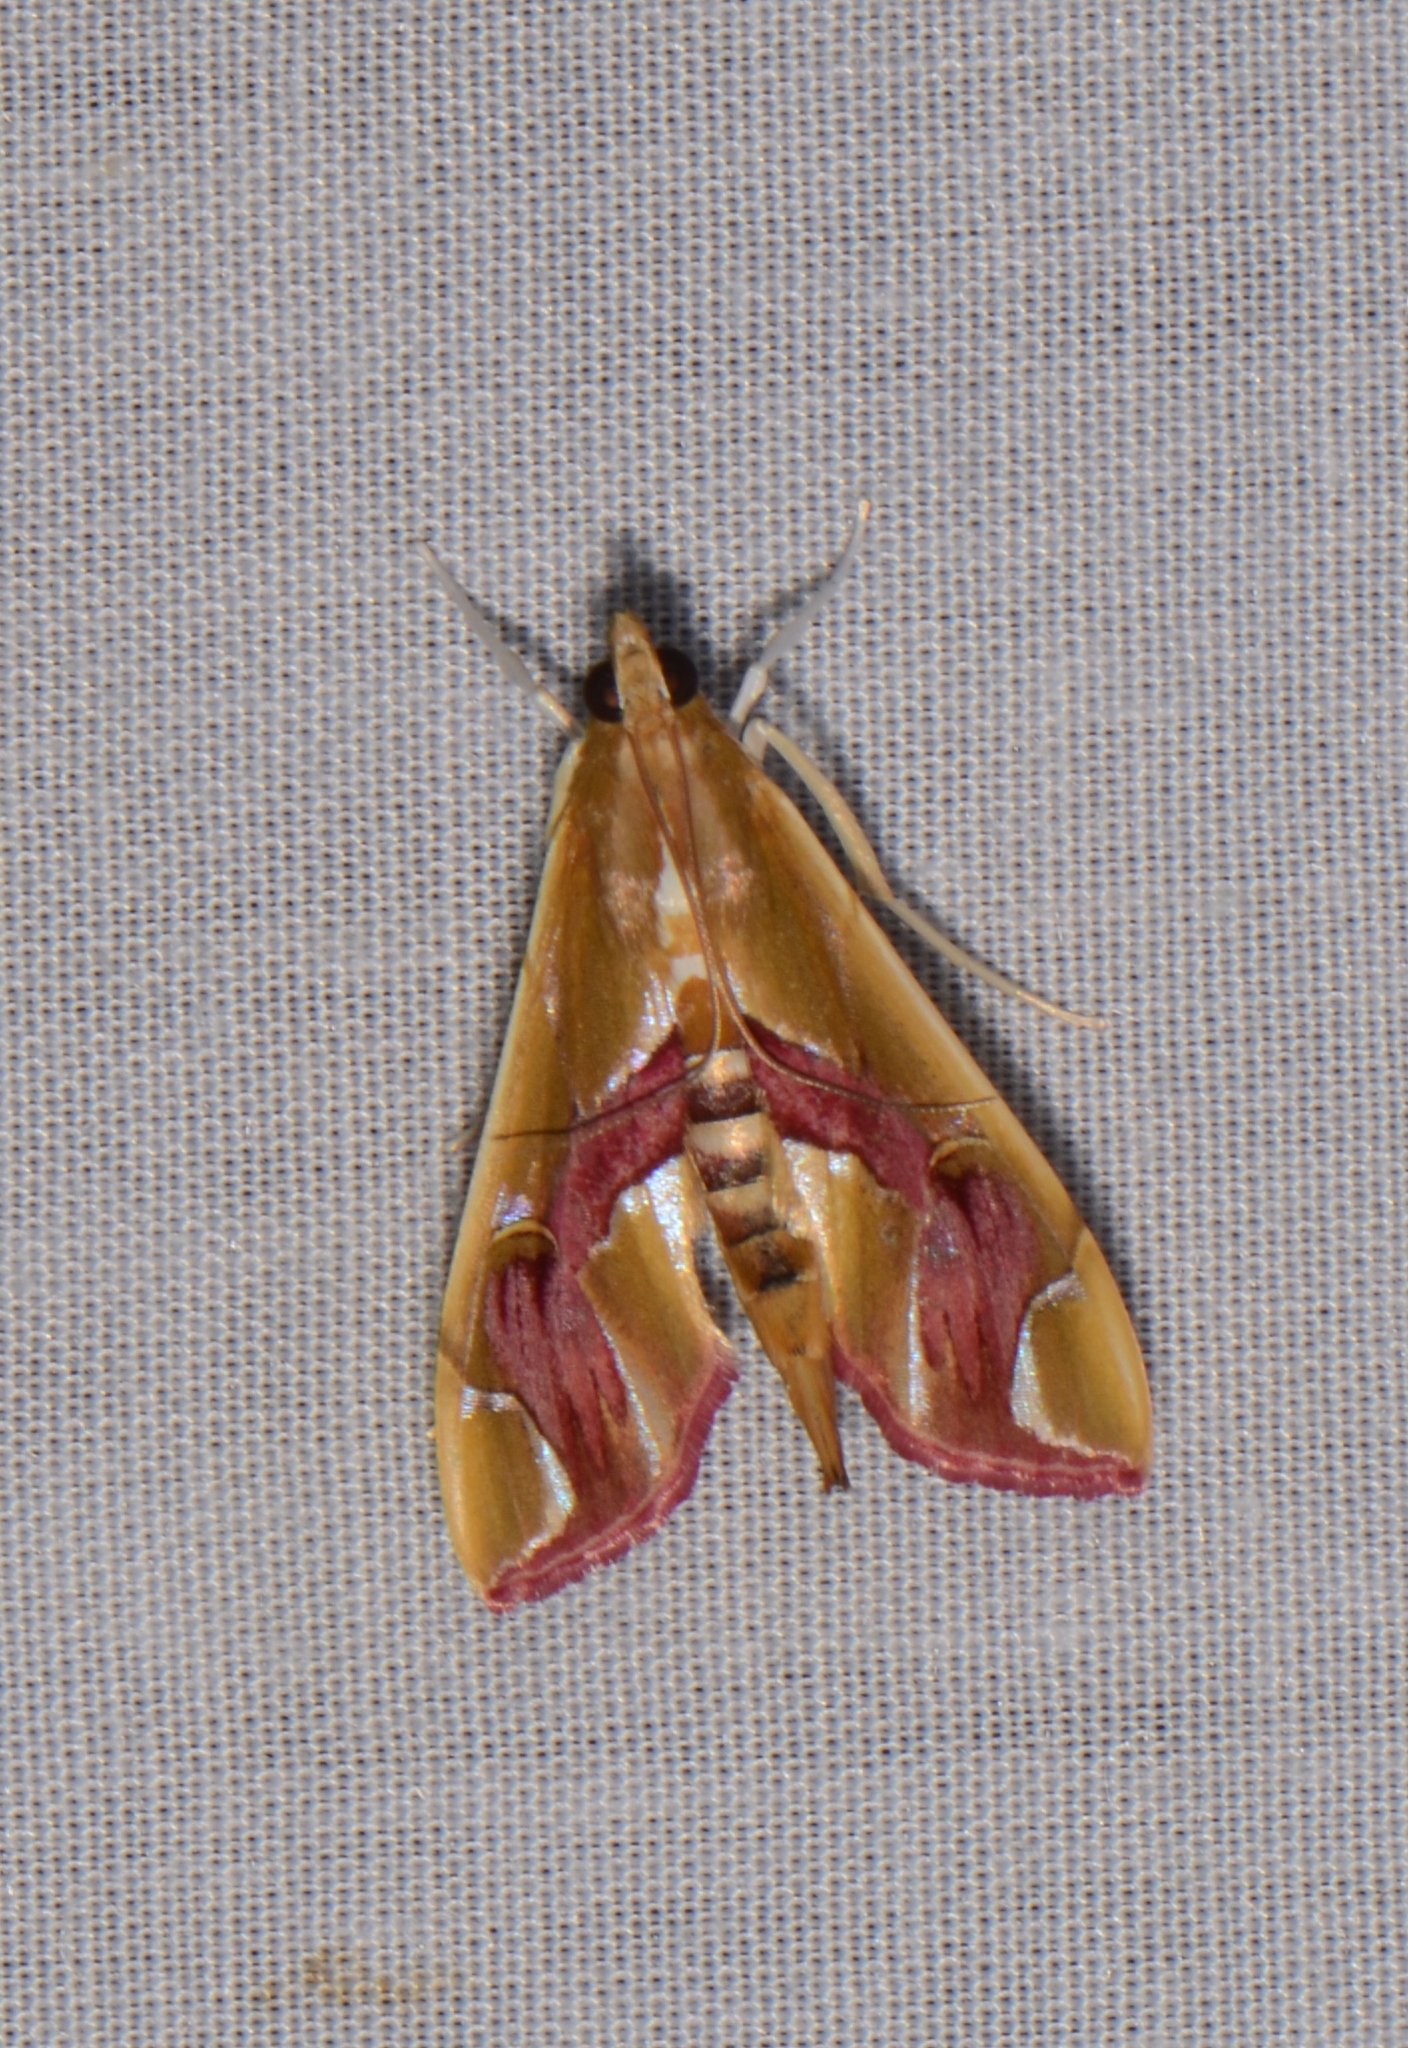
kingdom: Animalia
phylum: Arthropoda
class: Insecta
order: Lepidoptera
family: Crambidae
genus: Agathodes
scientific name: Agathodes ostentalis
